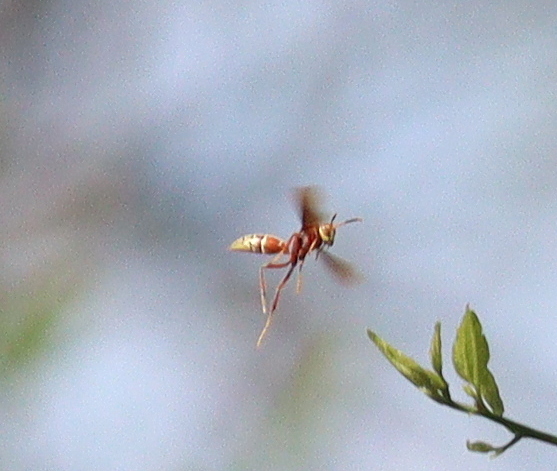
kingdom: Animalia
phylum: Arthropoda
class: Insecta
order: Hymenoptera
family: Eumenidae
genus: Polistes
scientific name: Polistes cavapyta
